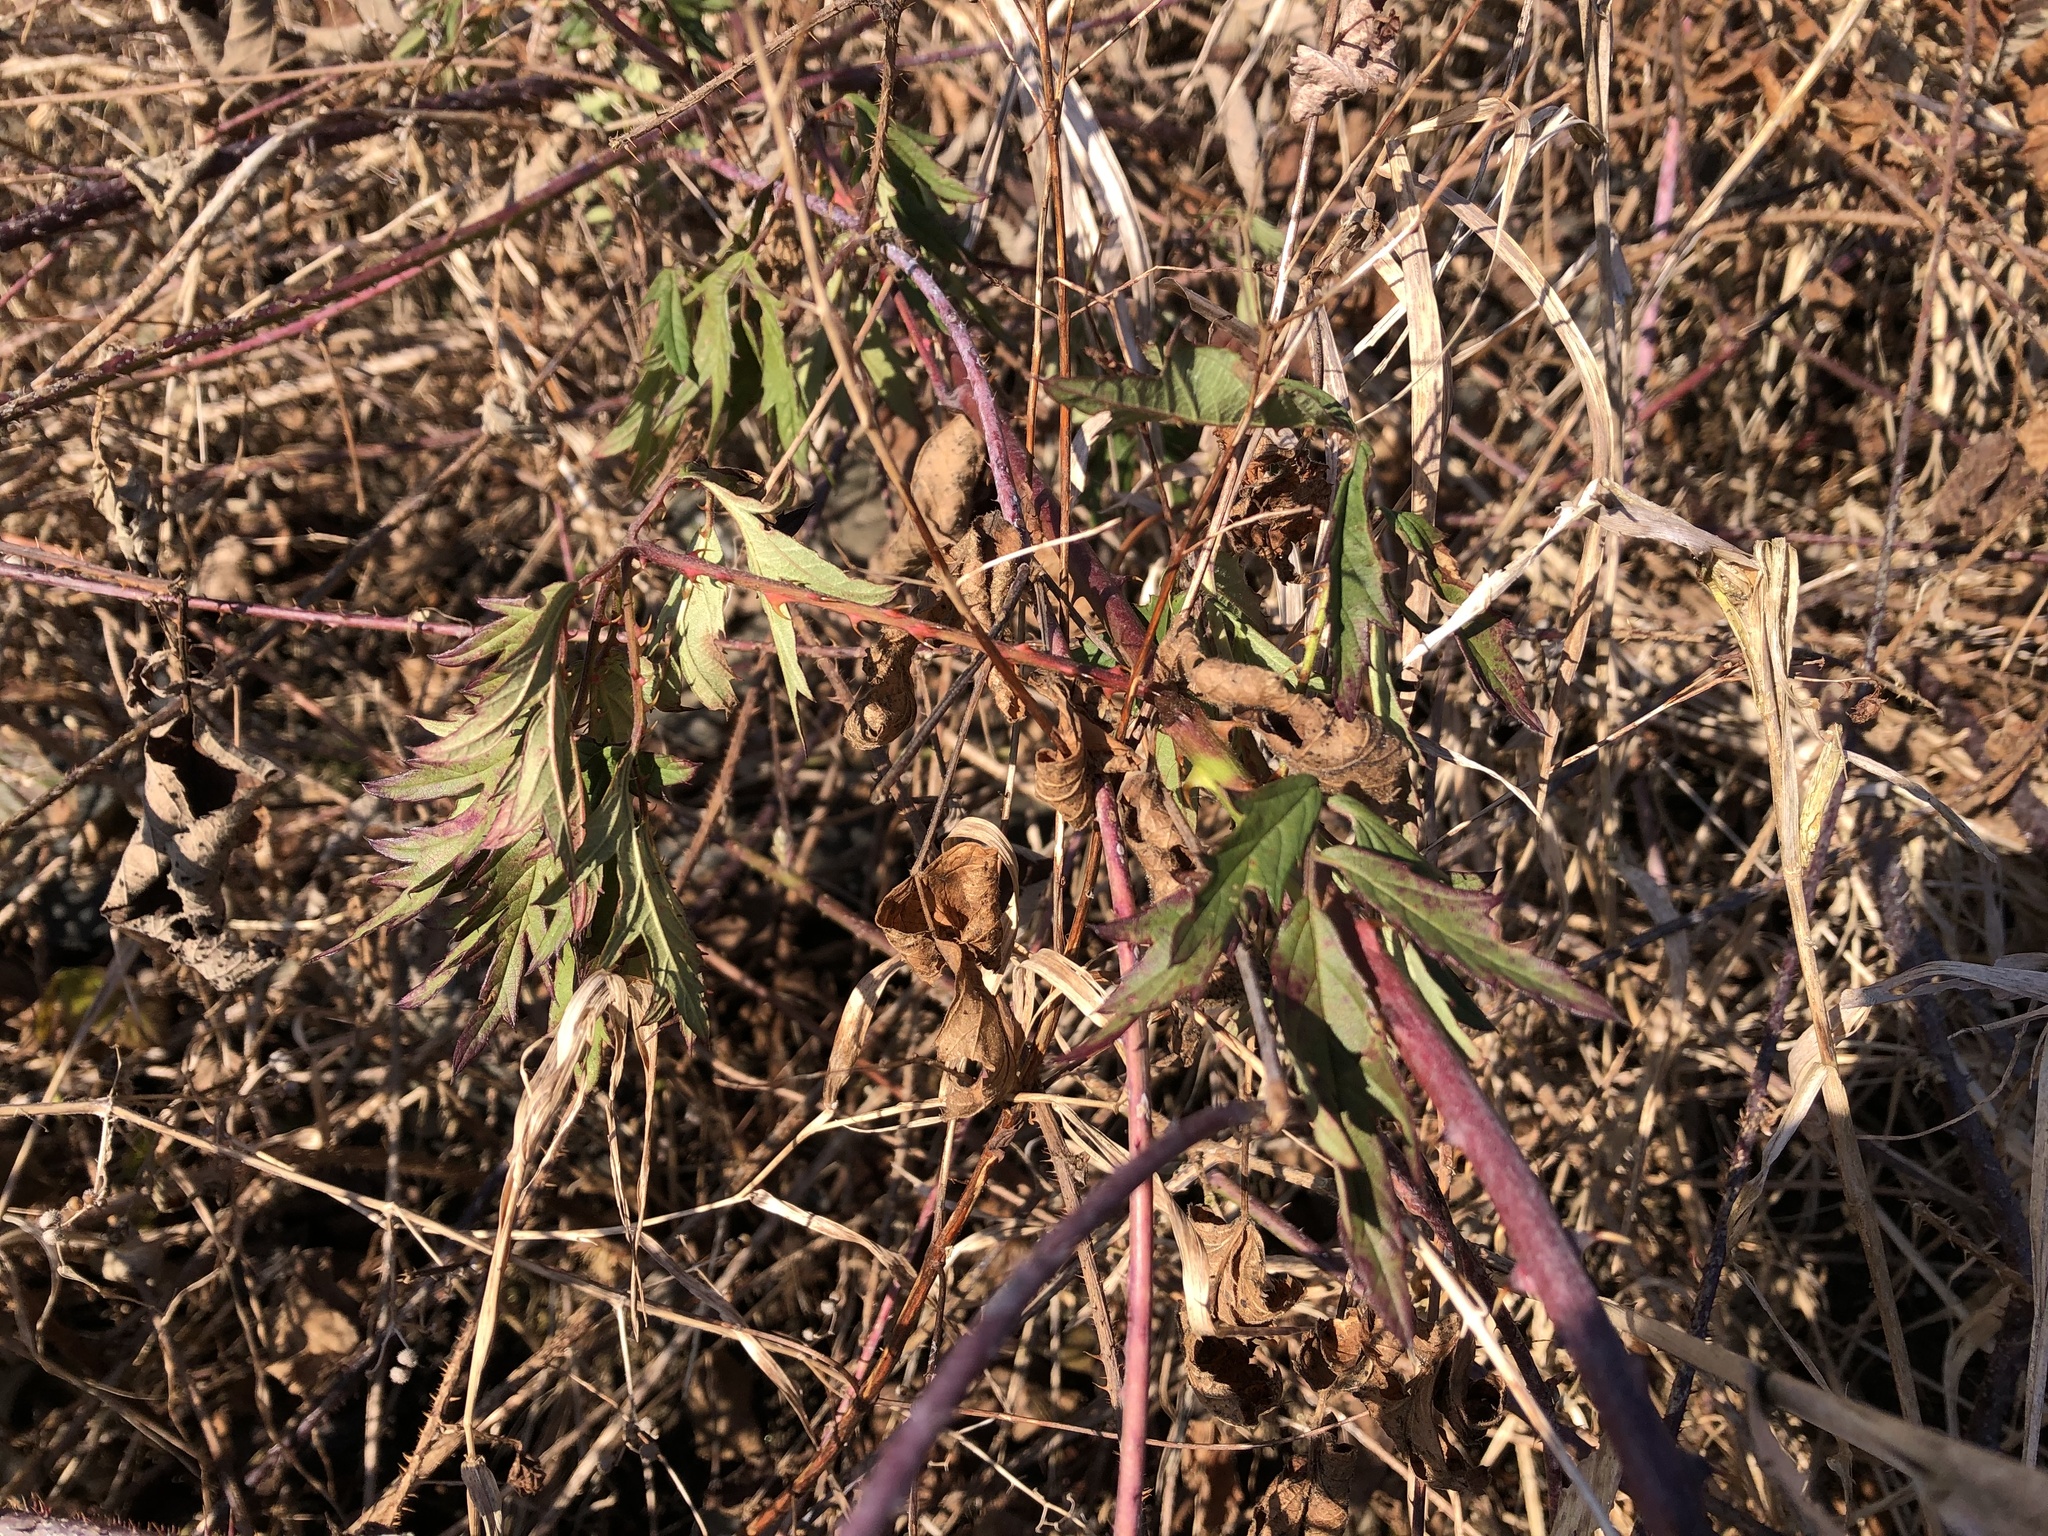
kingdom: Plantae
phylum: Tracheophyta
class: Magnoliopsida
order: Rosales
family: Rosaceae
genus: Rubus
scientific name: Rubus laciniatus
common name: Evergreen blackberry
